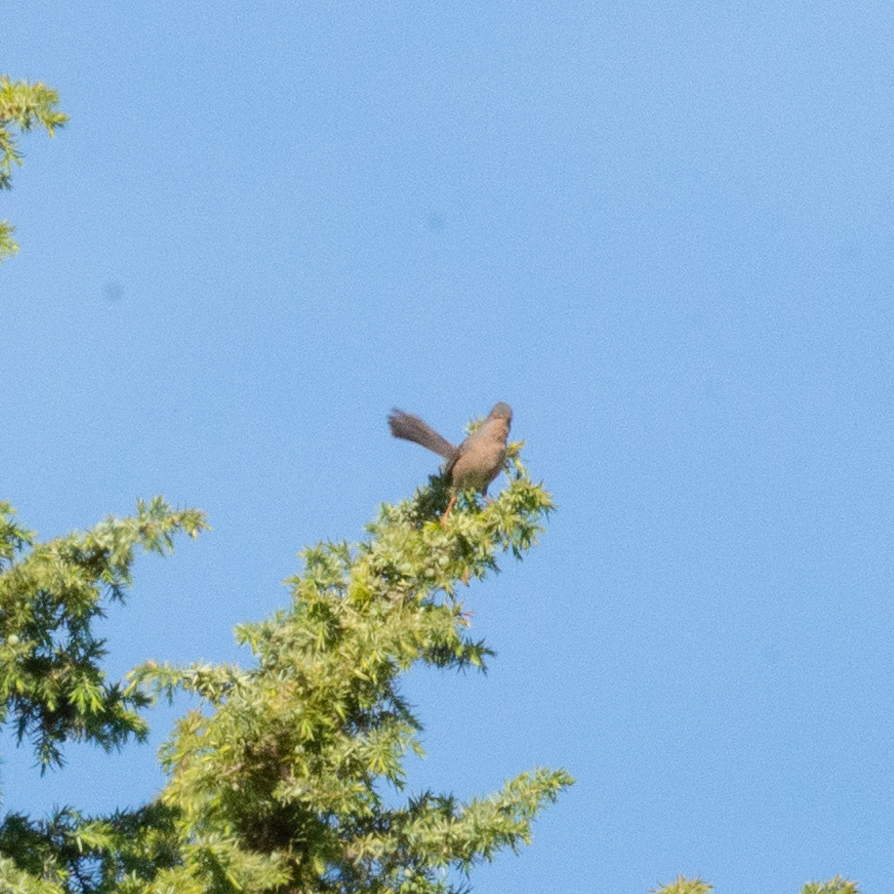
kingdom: Animalia
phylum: Chordata
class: Aves
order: Passeriformes
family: Sylviidae
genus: Sylvia
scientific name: Sylvia undata
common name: Dartford warbler
